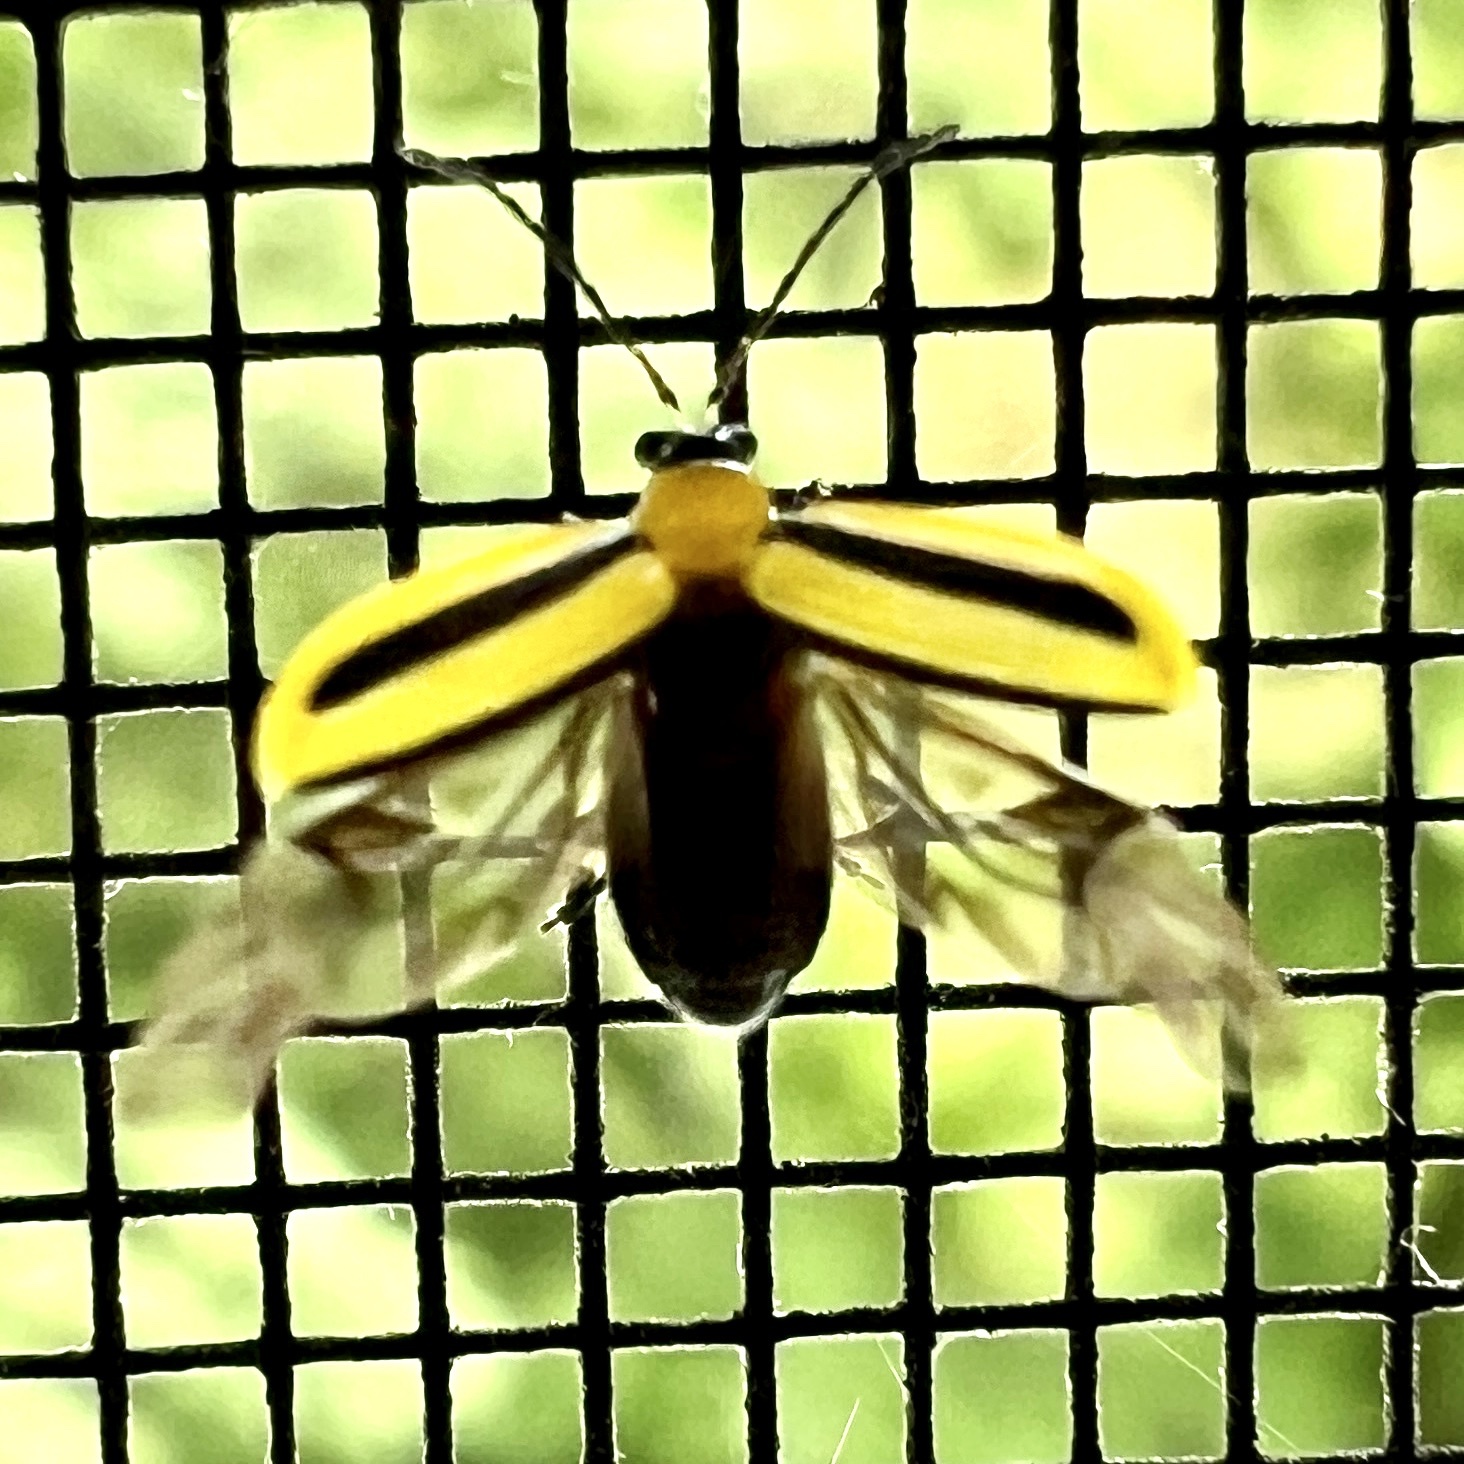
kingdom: Animalia
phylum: Arthropoda
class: Insecta
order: Coleoptera
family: Chrysomelidae
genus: Acalymma
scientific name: Acalymma vittatum
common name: Striped cucumber beetle
